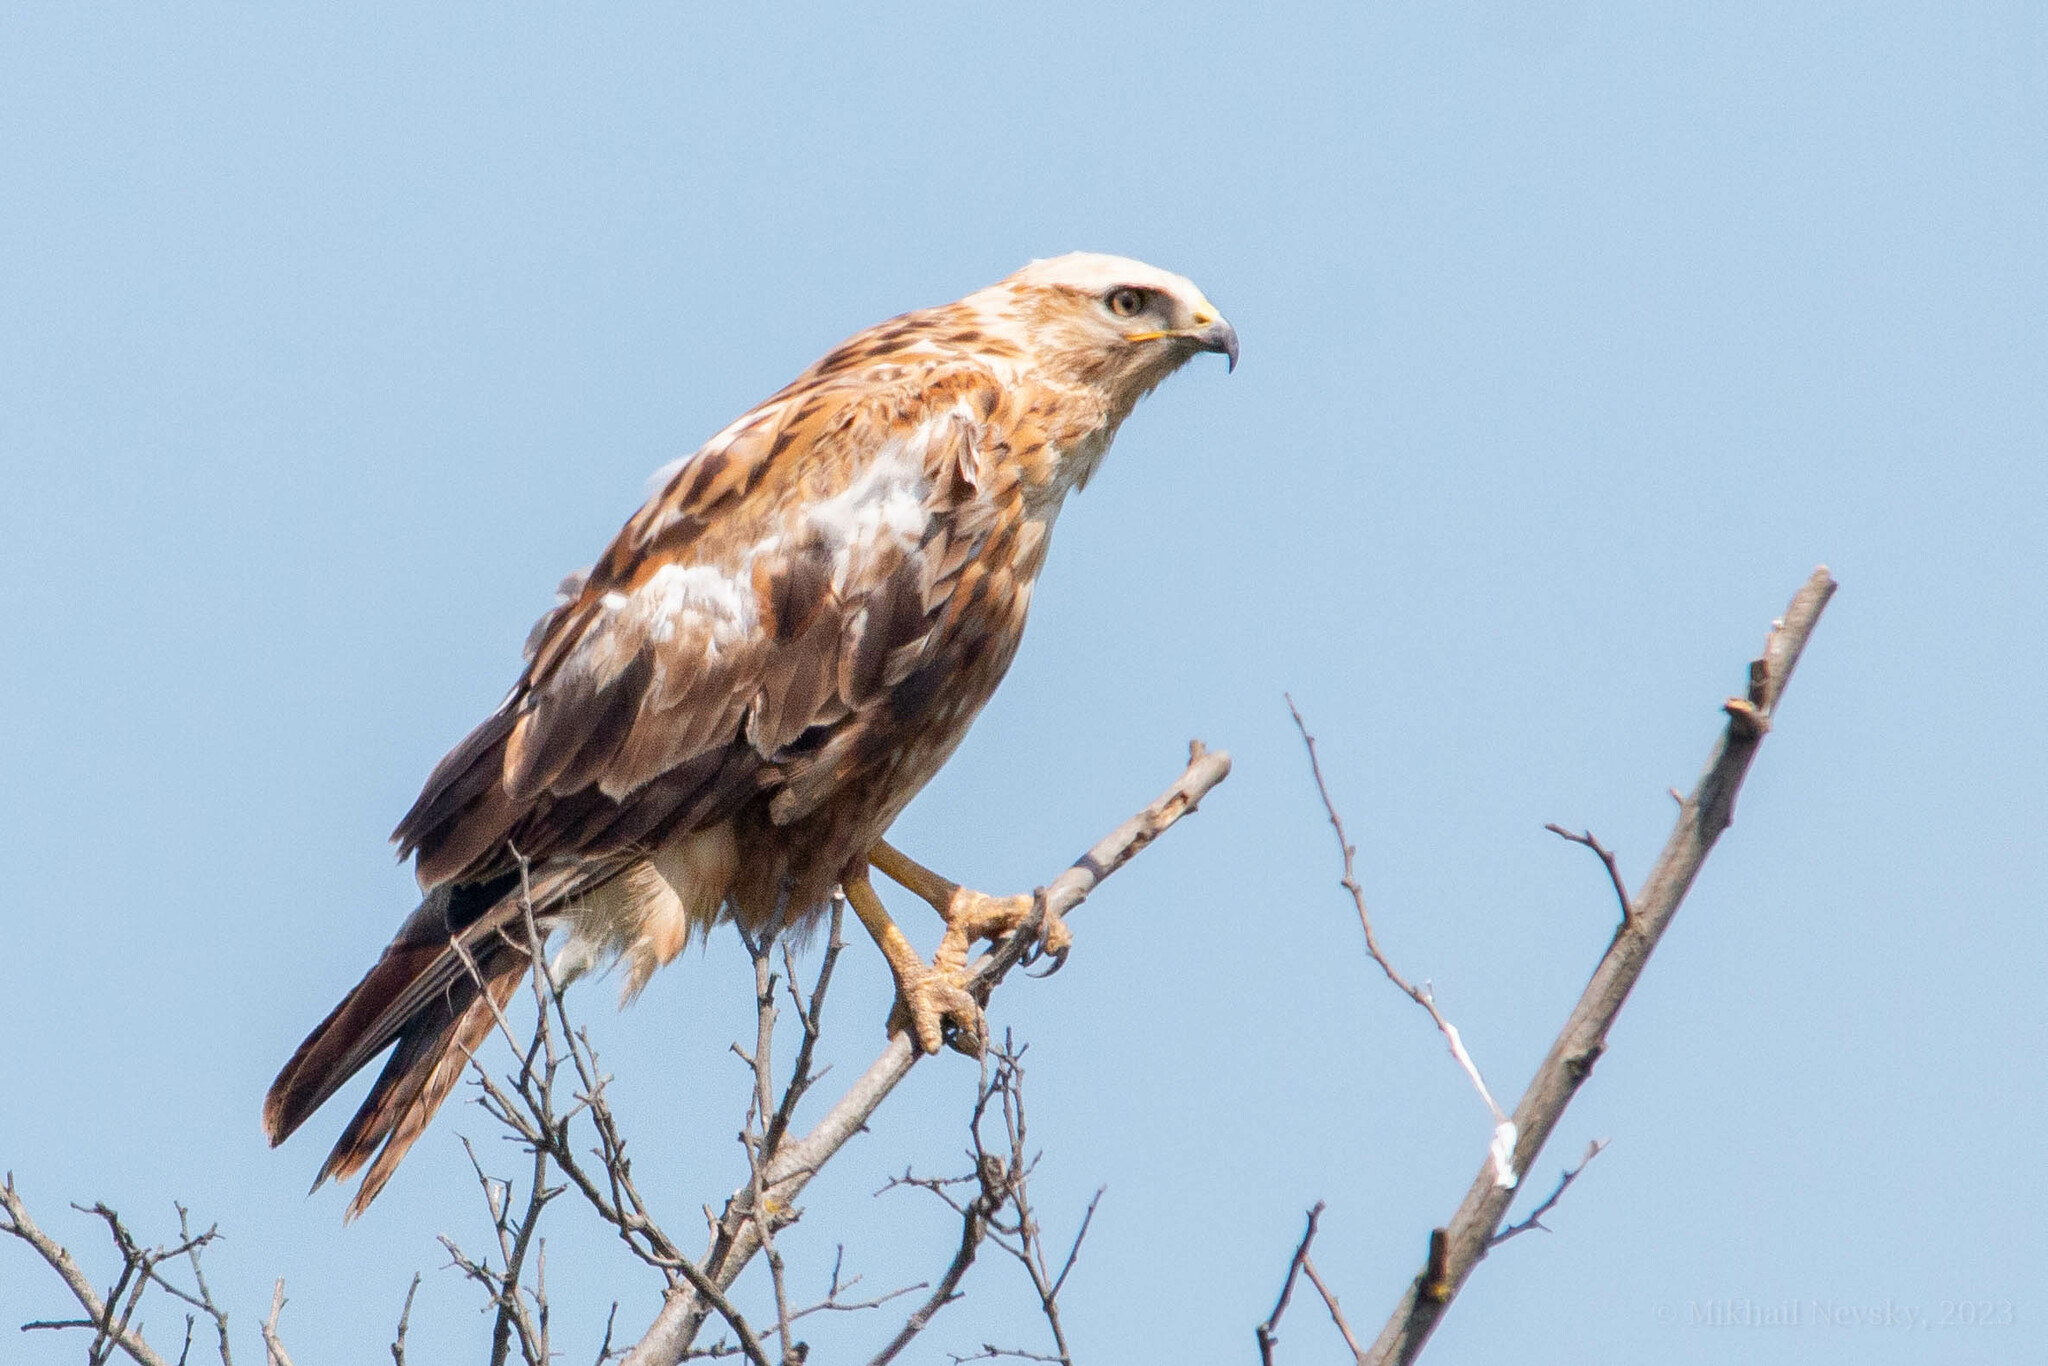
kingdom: Animalia
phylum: Chordata
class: Aves
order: Accipitriformes
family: Accipitridae
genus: Buteo
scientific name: Buteo rufinus
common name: Long-legged buzzard
